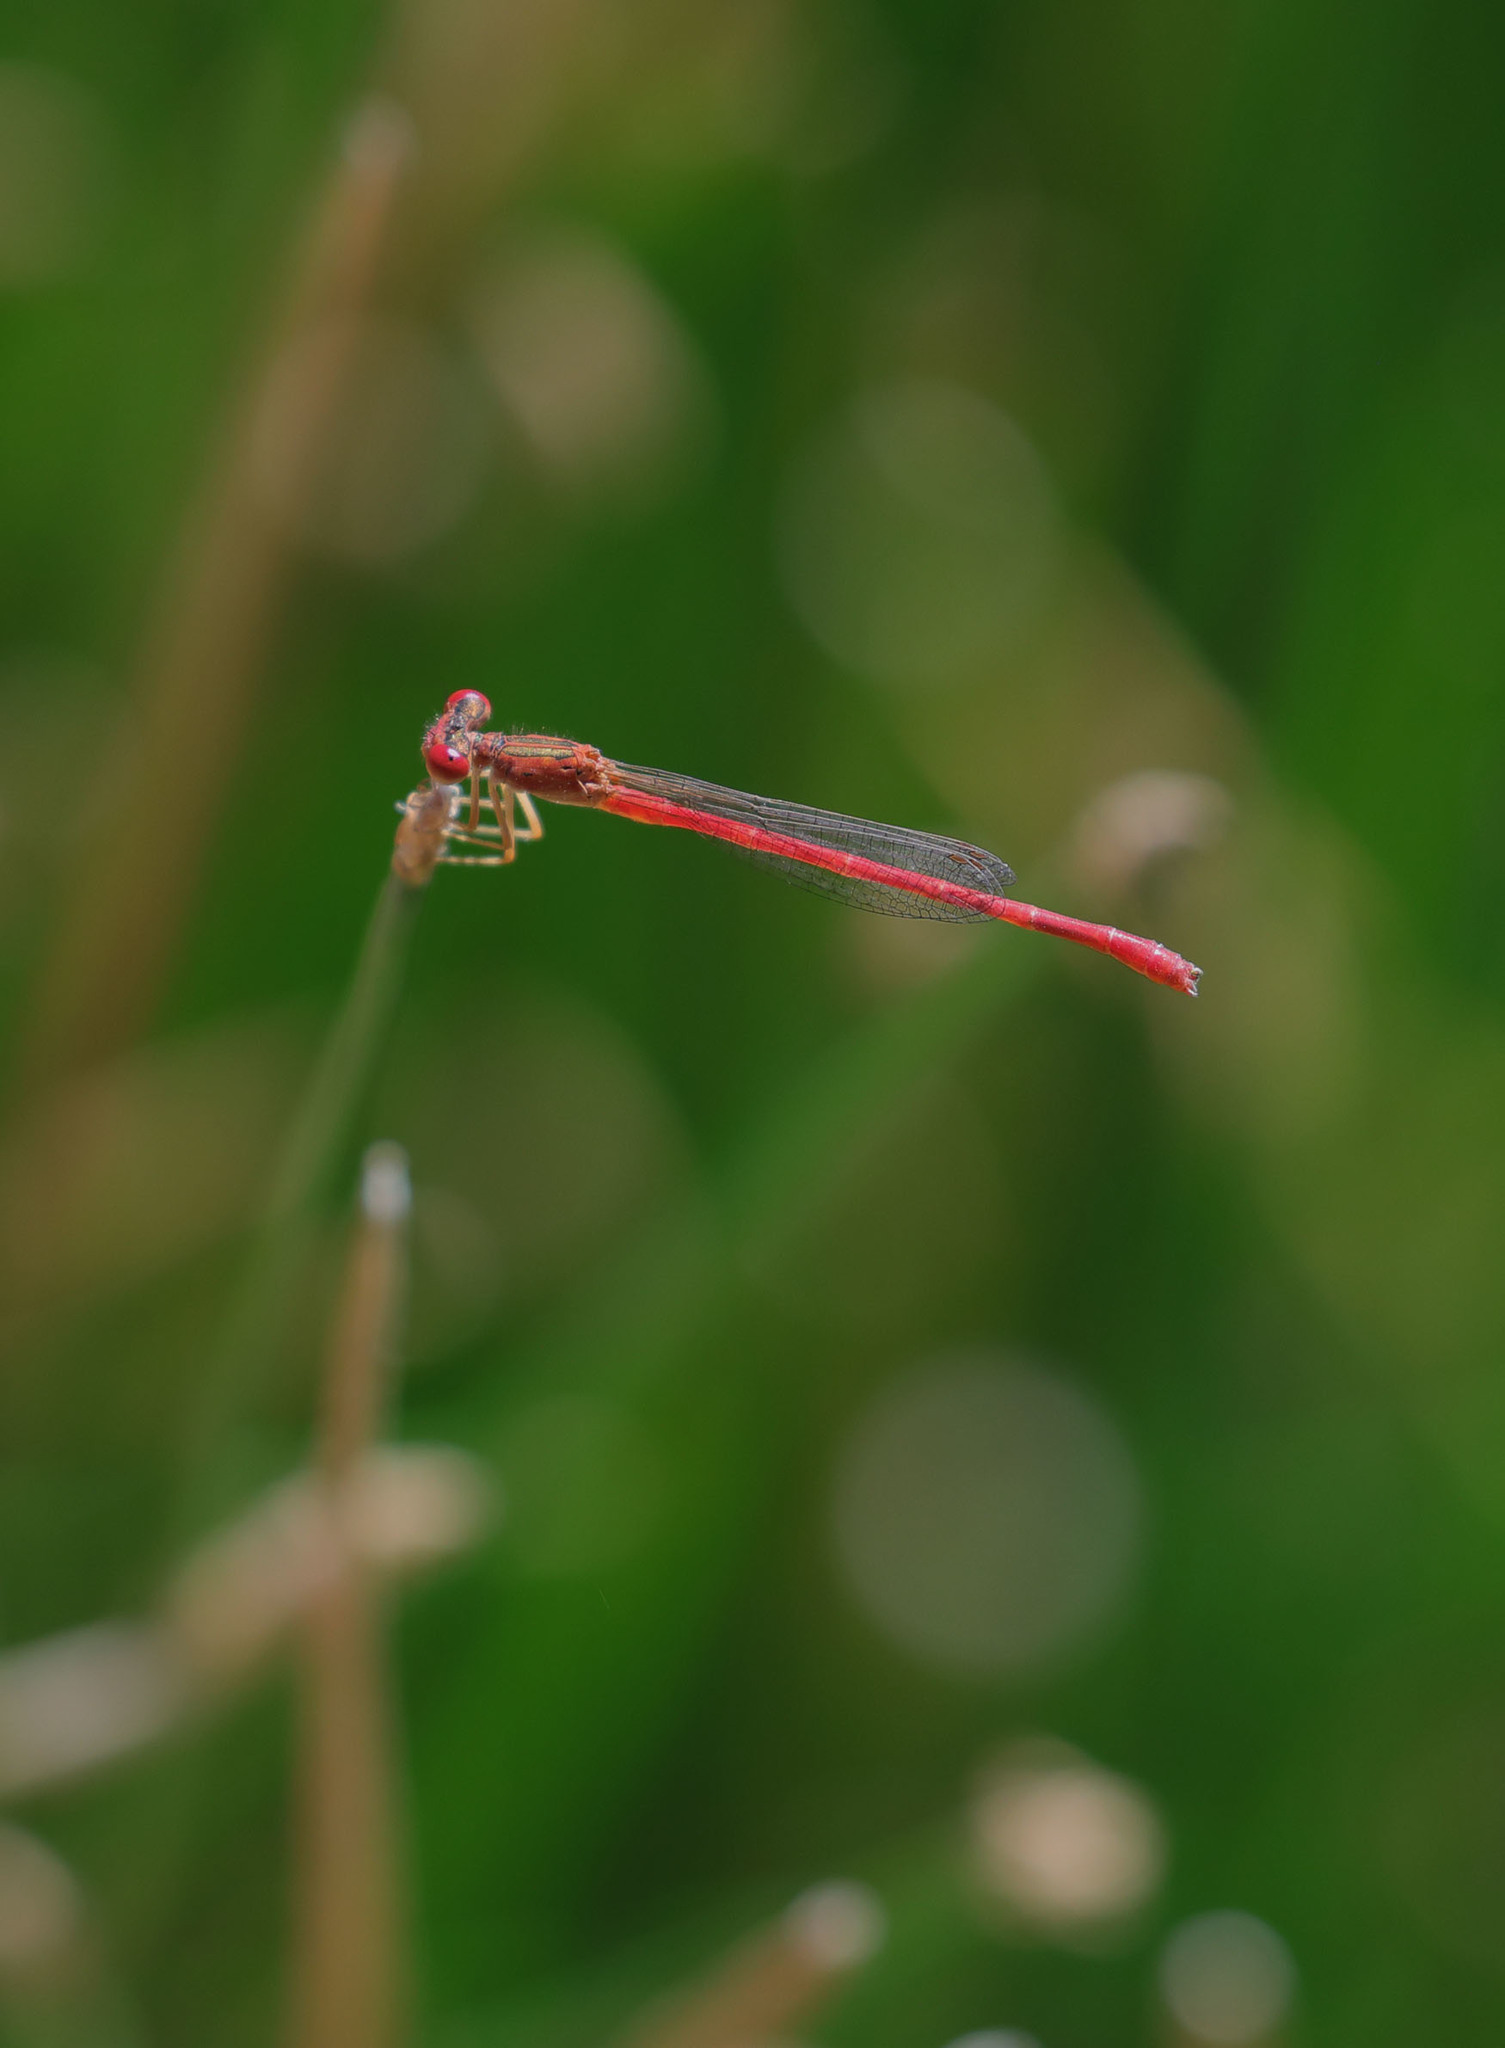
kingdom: Animalia
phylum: Arthropoda
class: Insecta
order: Odonata
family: Coenagrionidae
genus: Telebasis
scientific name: Telebasis salva
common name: Desert firetail
